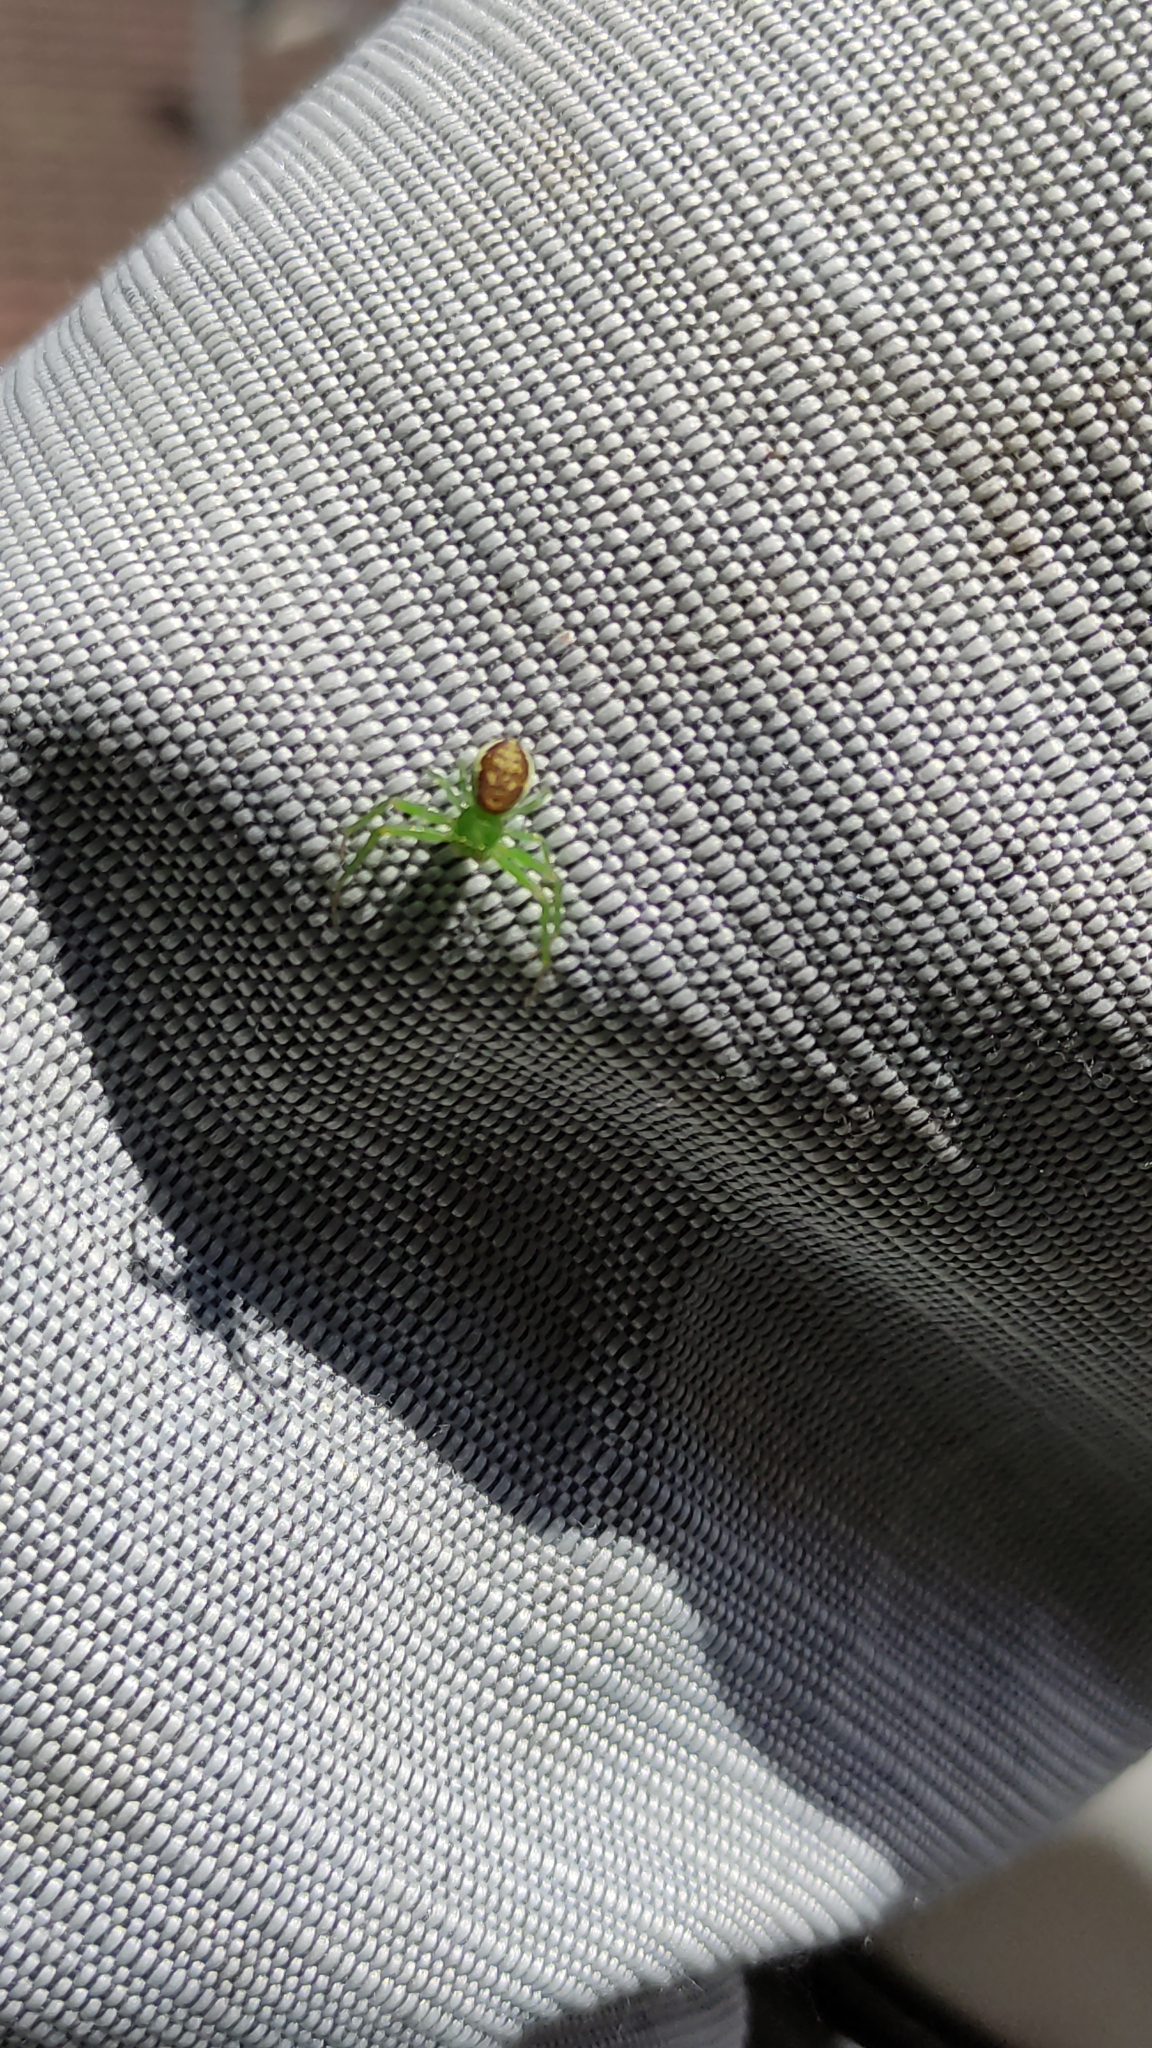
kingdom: Animalia
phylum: Arthropoda
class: Arachnida
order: Araneae
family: Thomisidae
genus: Diaea
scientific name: Diaea dorsata
